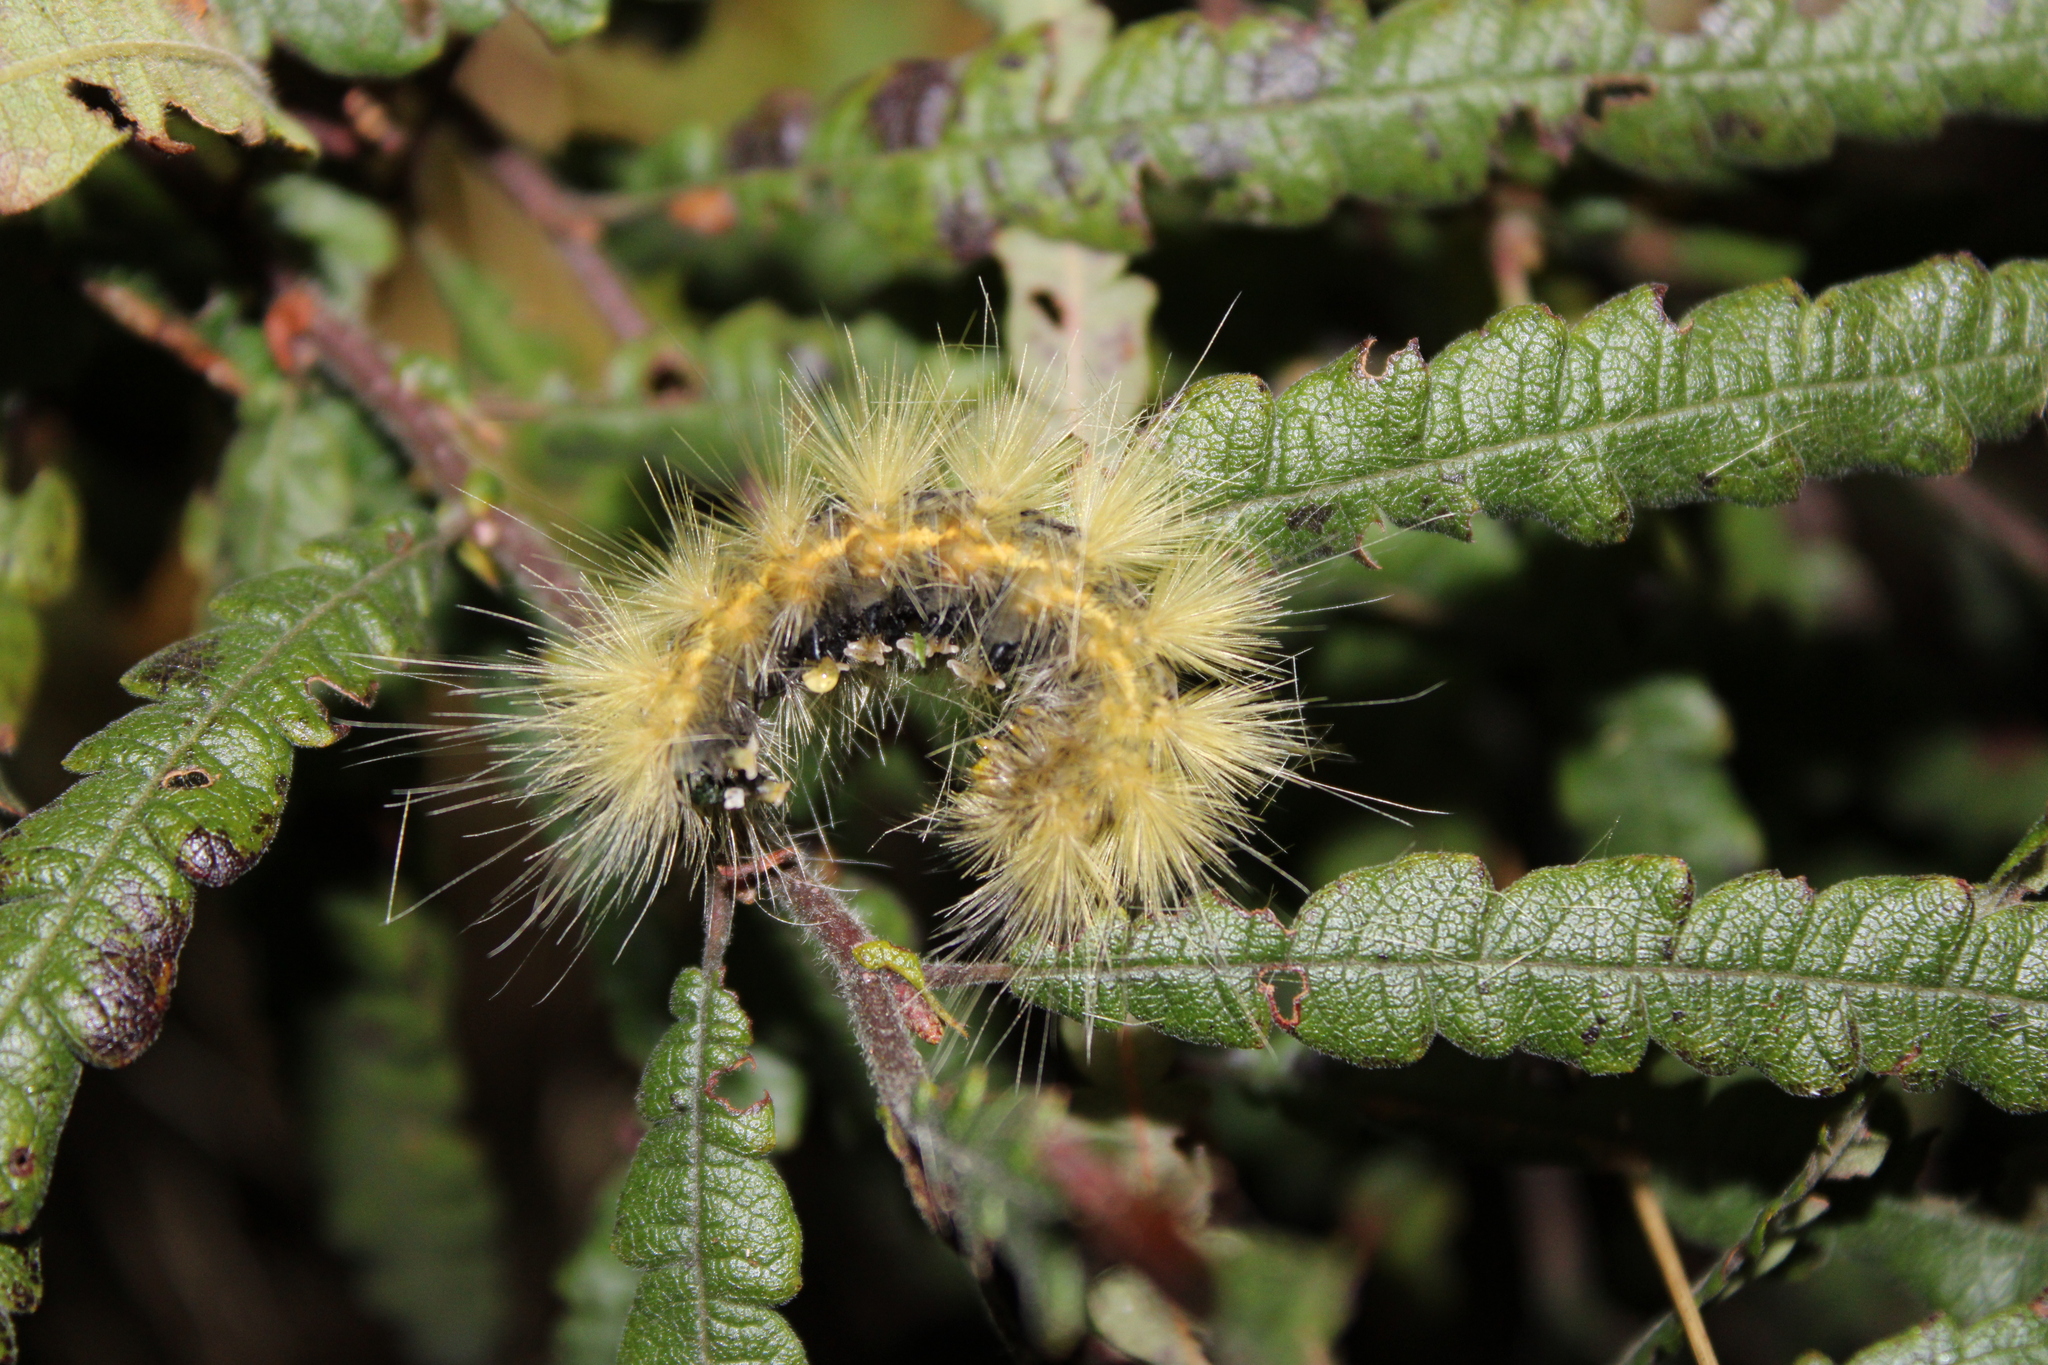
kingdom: Animalia
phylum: Arthropoda
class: Insecta
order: Lepidoptera
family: Erebidae
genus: Spilosoma
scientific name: Spilosoma virginica
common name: Virginia tiger moth
